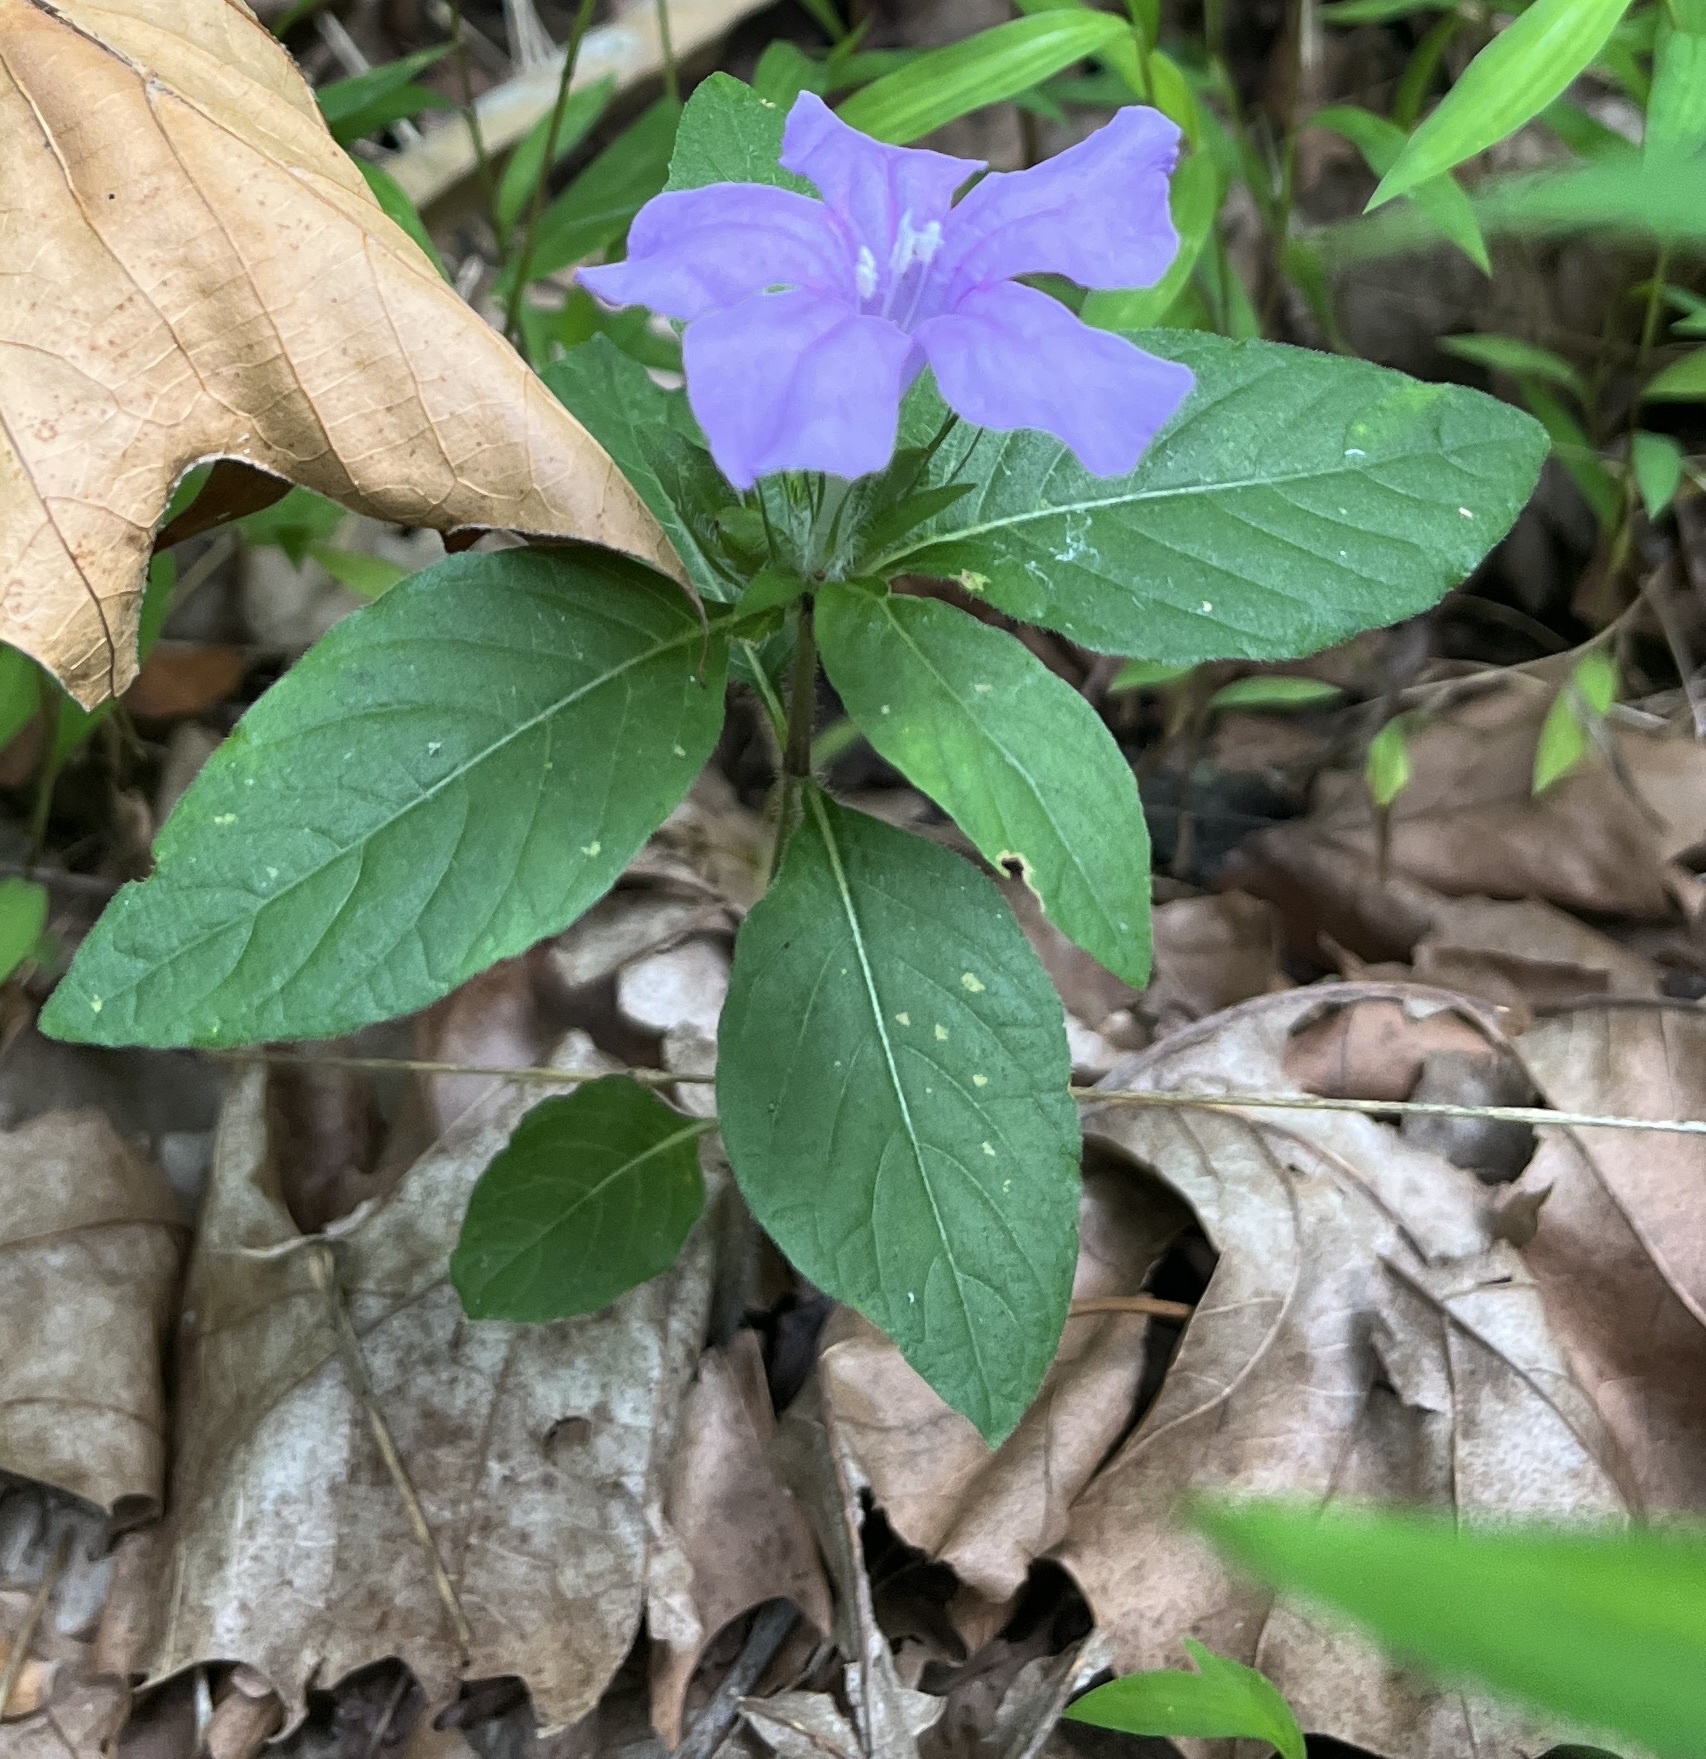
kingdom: Plantae
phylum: Tracheophyta
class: Magnoliopsida
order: Lamiales
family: Acanthaceae
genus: Ruellia
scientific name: Ruellia caroliniensis
